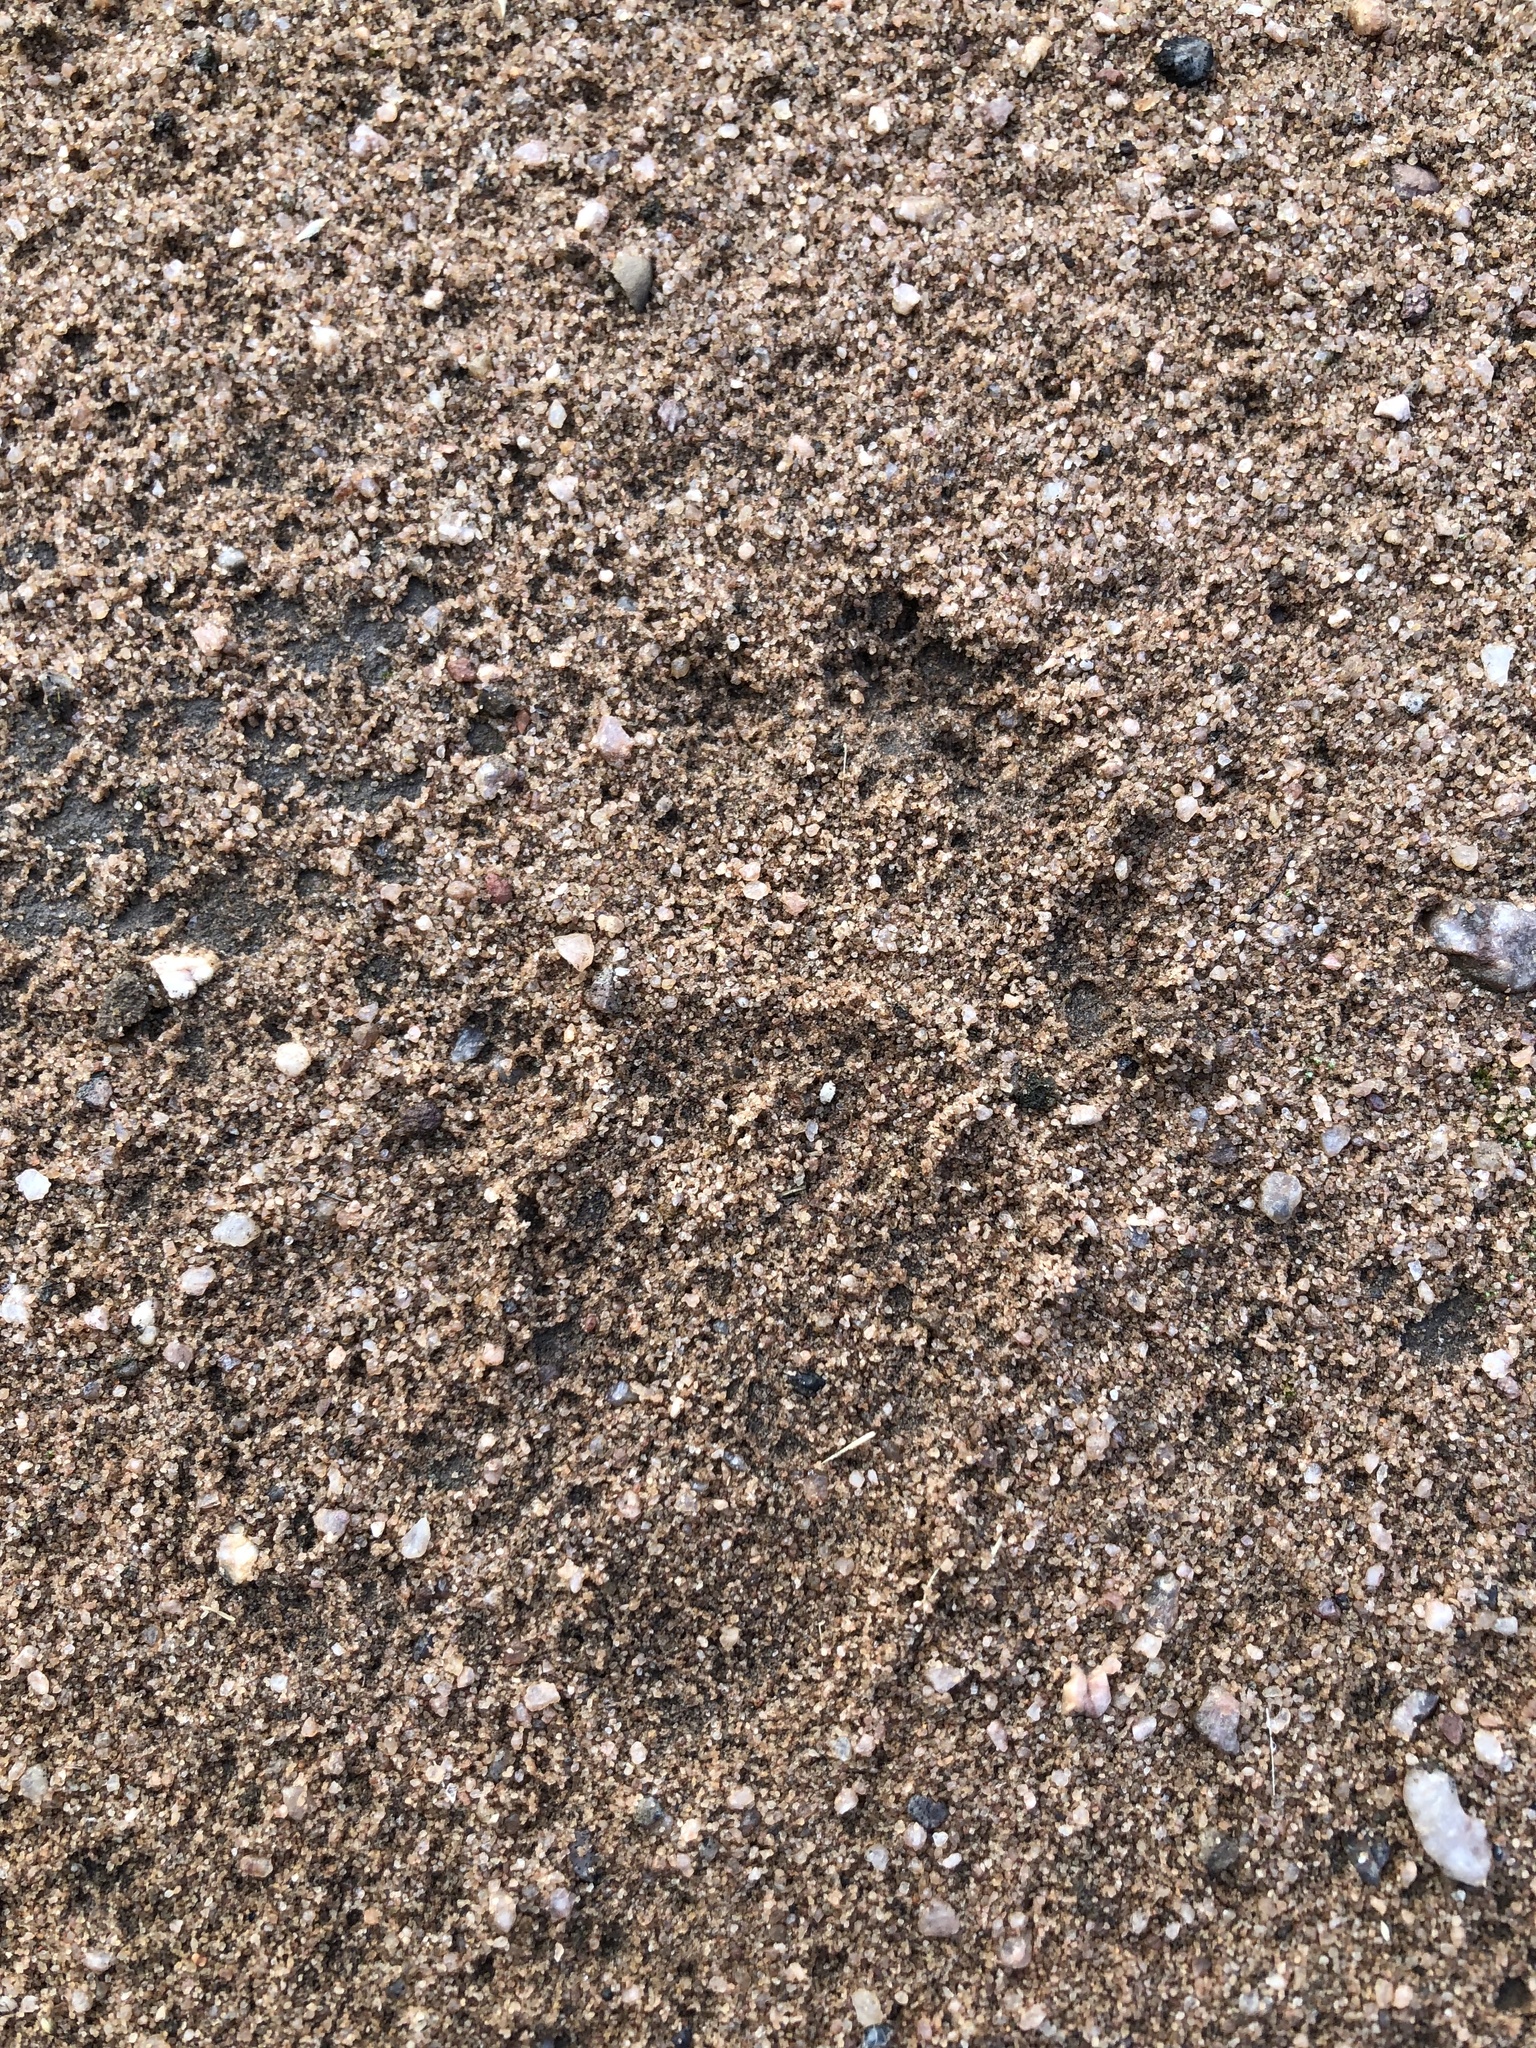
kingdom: Animalia
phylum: Chordata
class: Mammalia
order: Primates
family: Cercopithecidae
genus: Chlorocebus
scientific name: Chlorocebus pygerythrus
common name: Vervet monkey
